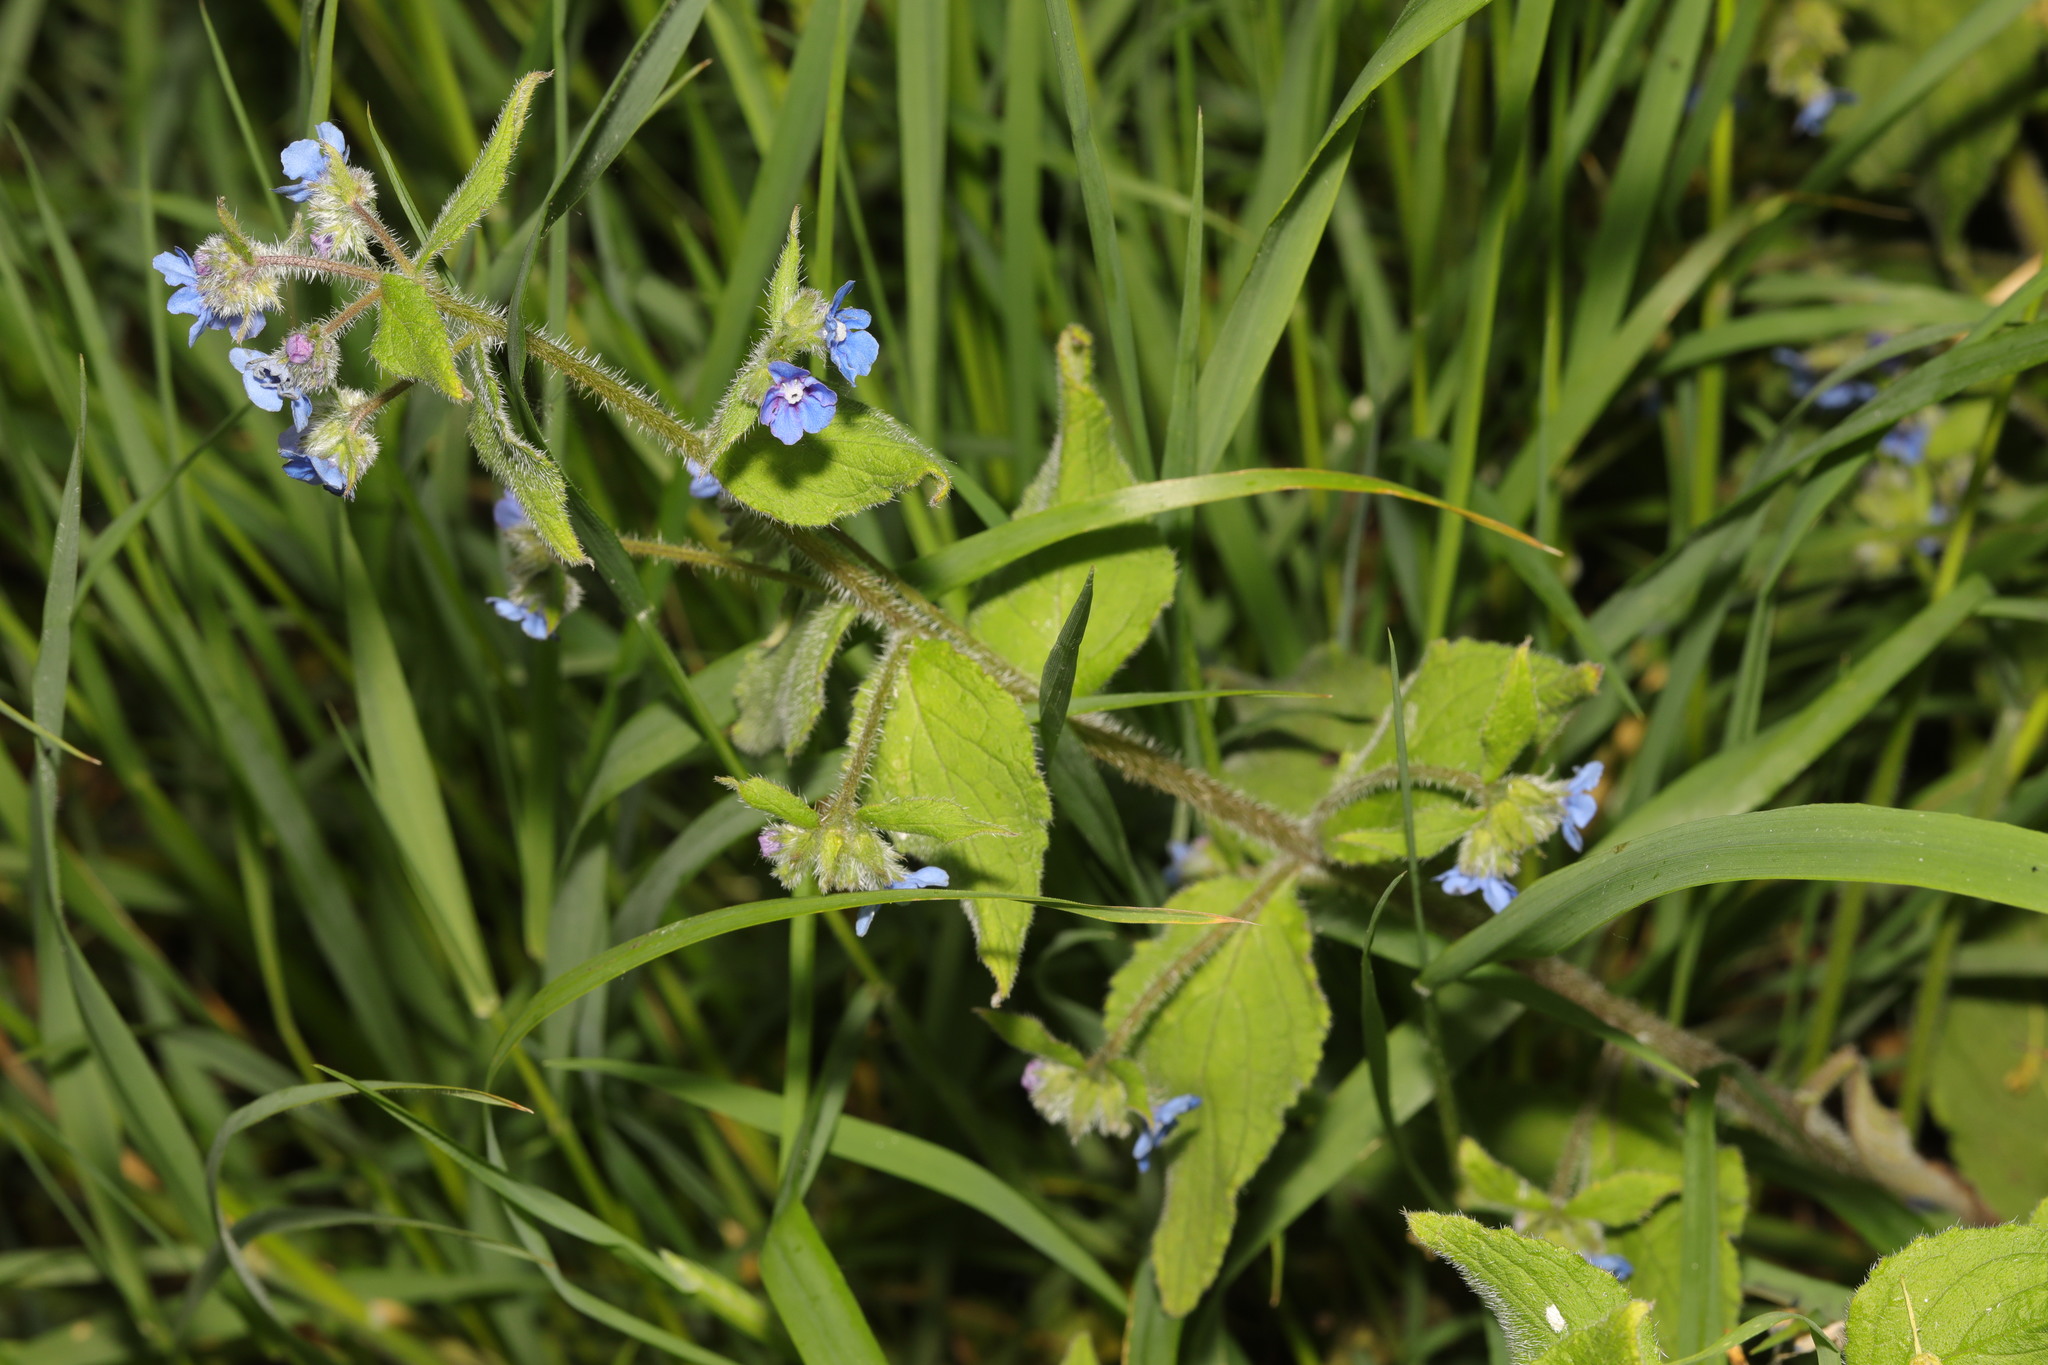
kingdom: Plantae
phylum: Tracheophyta
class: Magnoliopsida
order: Boraginales
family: Boraginaceae
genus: Pentaglottis
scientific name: Pentaglottis sempervirens
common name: Green alkanet
